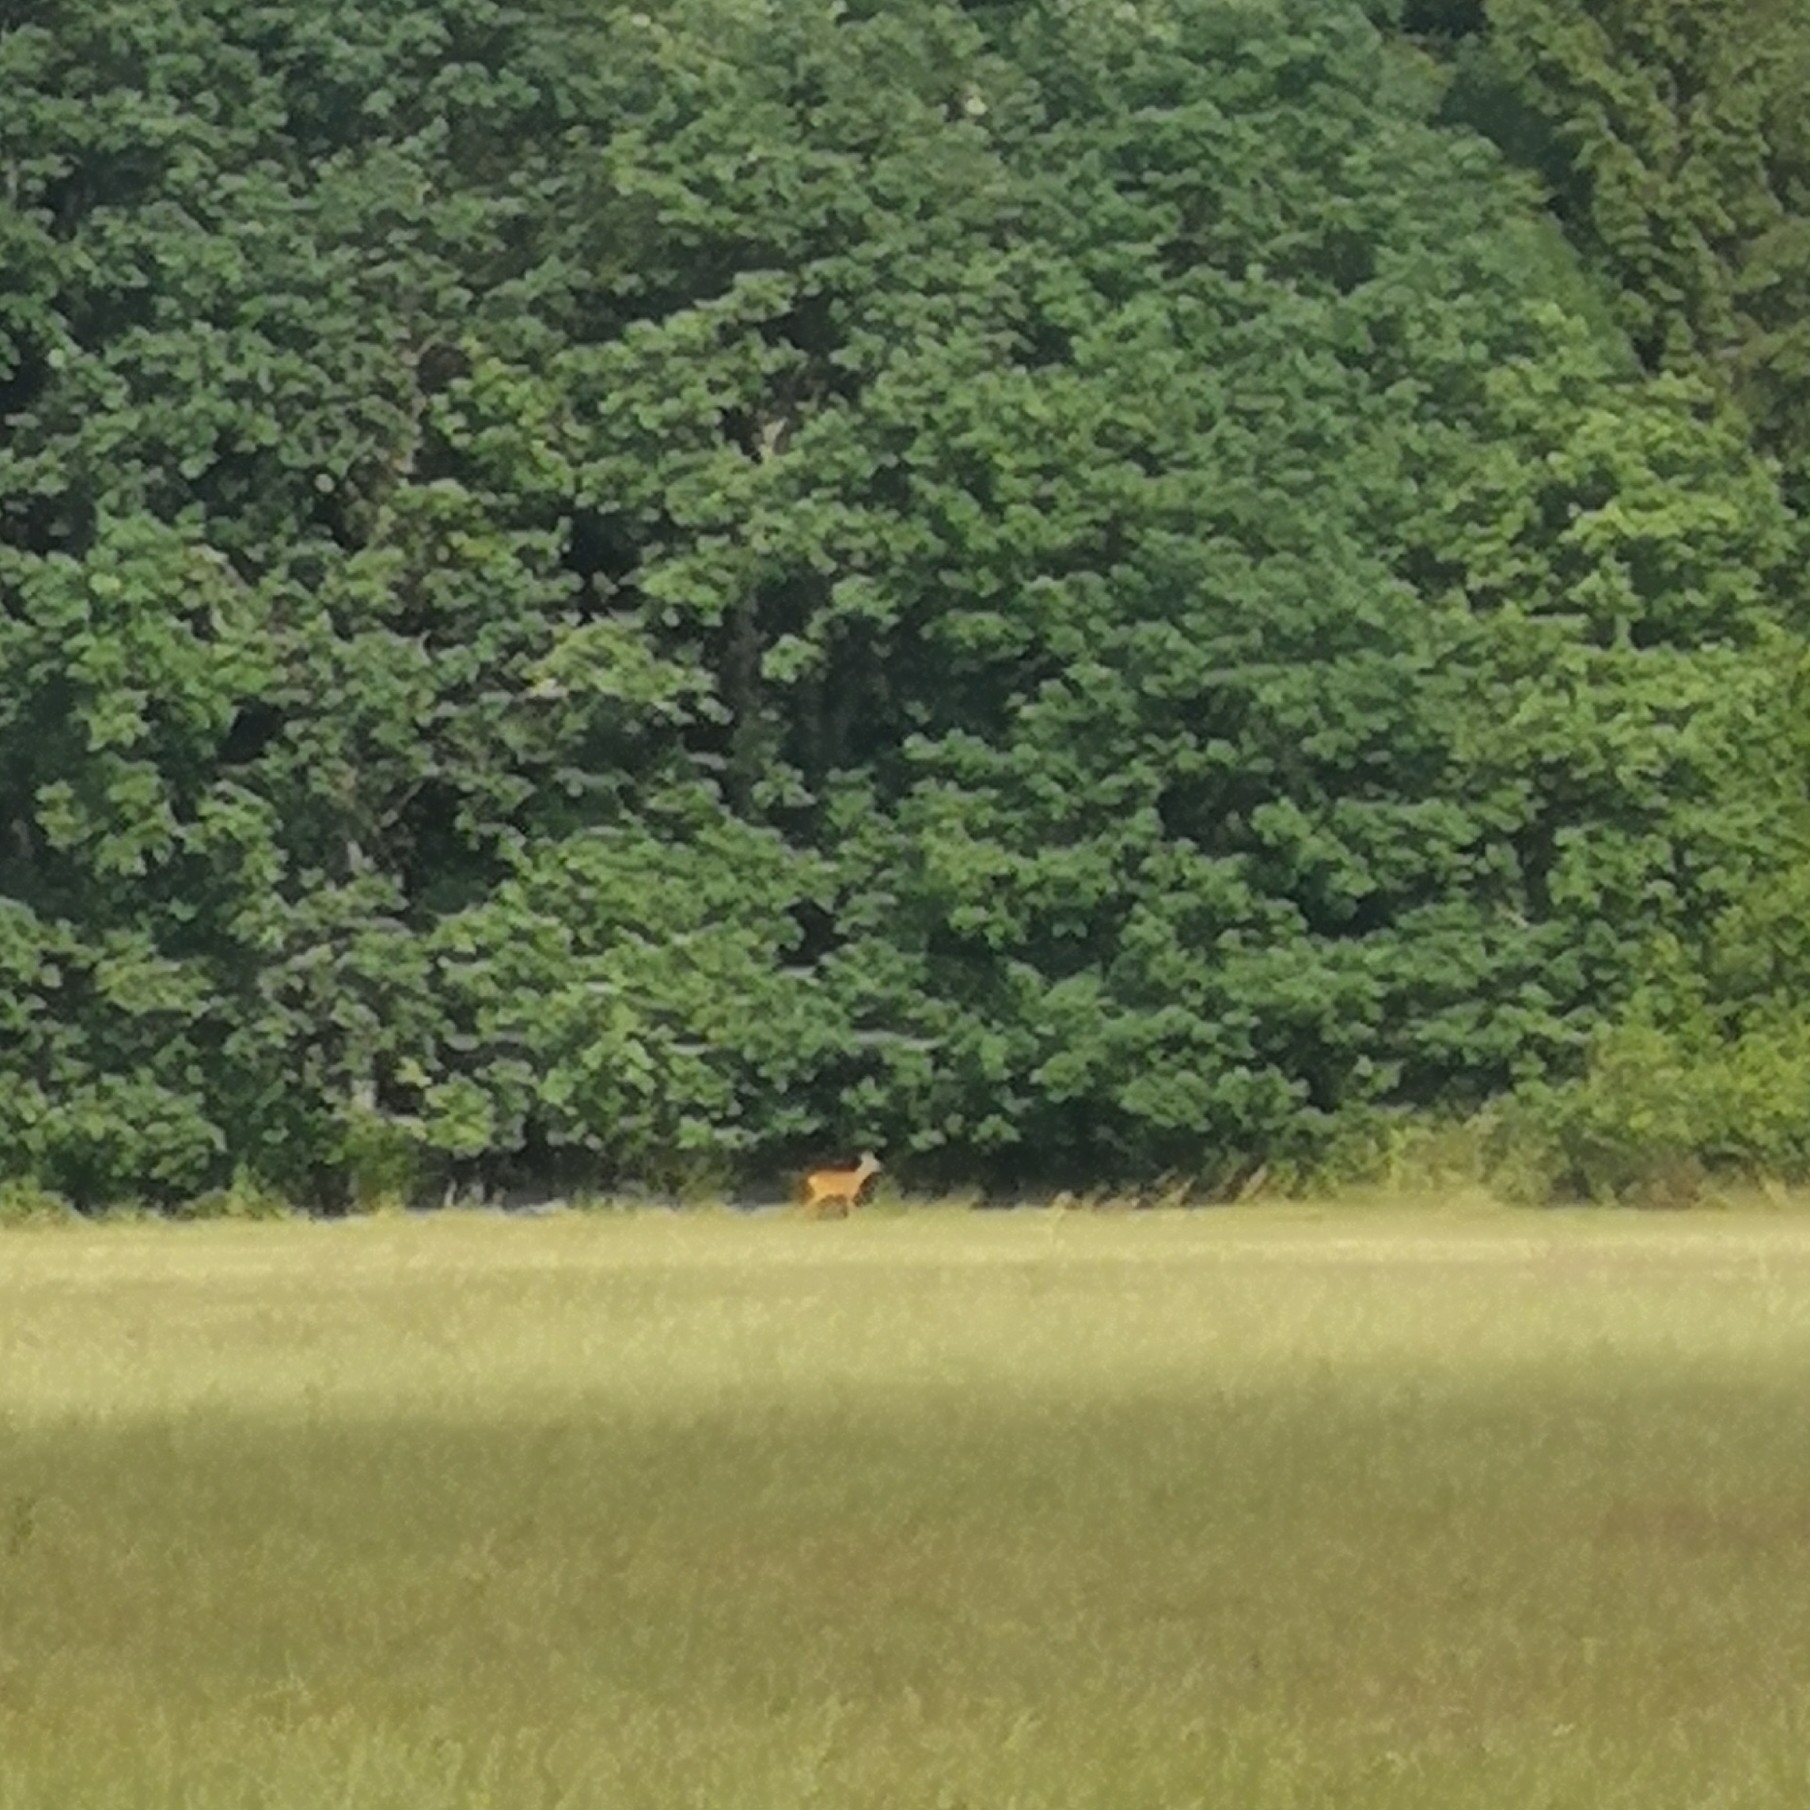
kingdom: Animalia
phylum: Chordata
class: Mammalia
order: Artiodactyla
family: Cervidae
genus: Capreolus
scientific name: Capreolus capreolus
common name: Western roe deer
